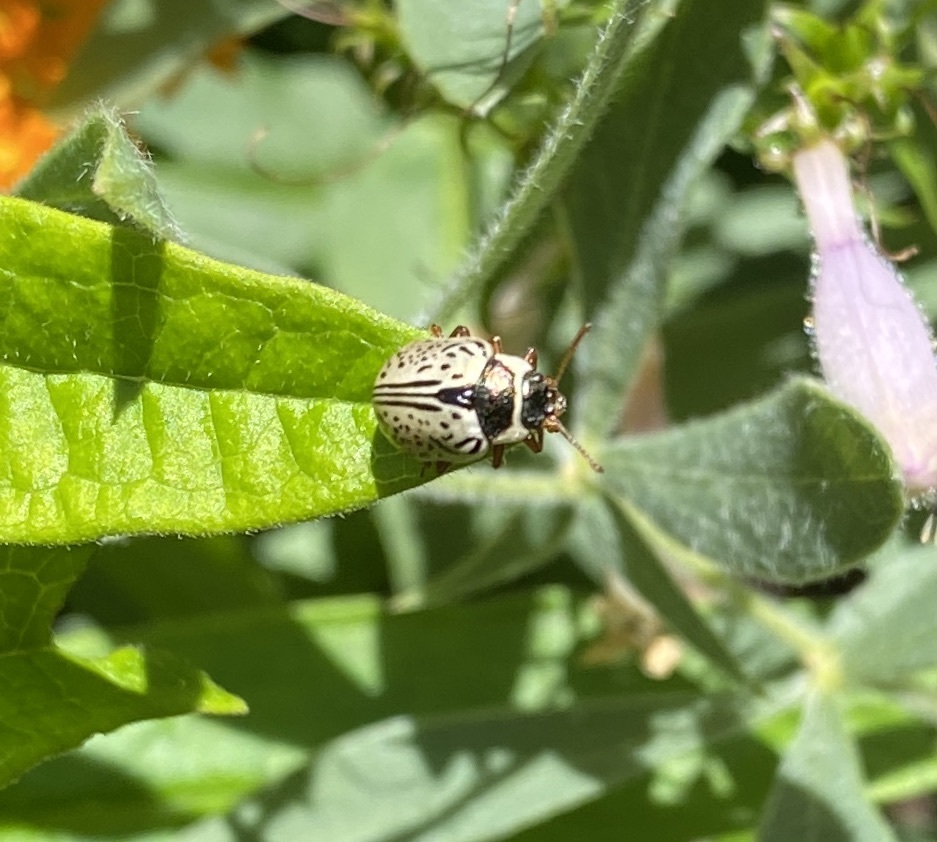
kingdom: Animalia
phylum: Arthropoda
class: Insecta
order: Coleoptera
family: Chrysomelidae
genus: Calligrapha
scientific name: Calligrapha multipunctata
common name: Common willow calligrapher beetle
